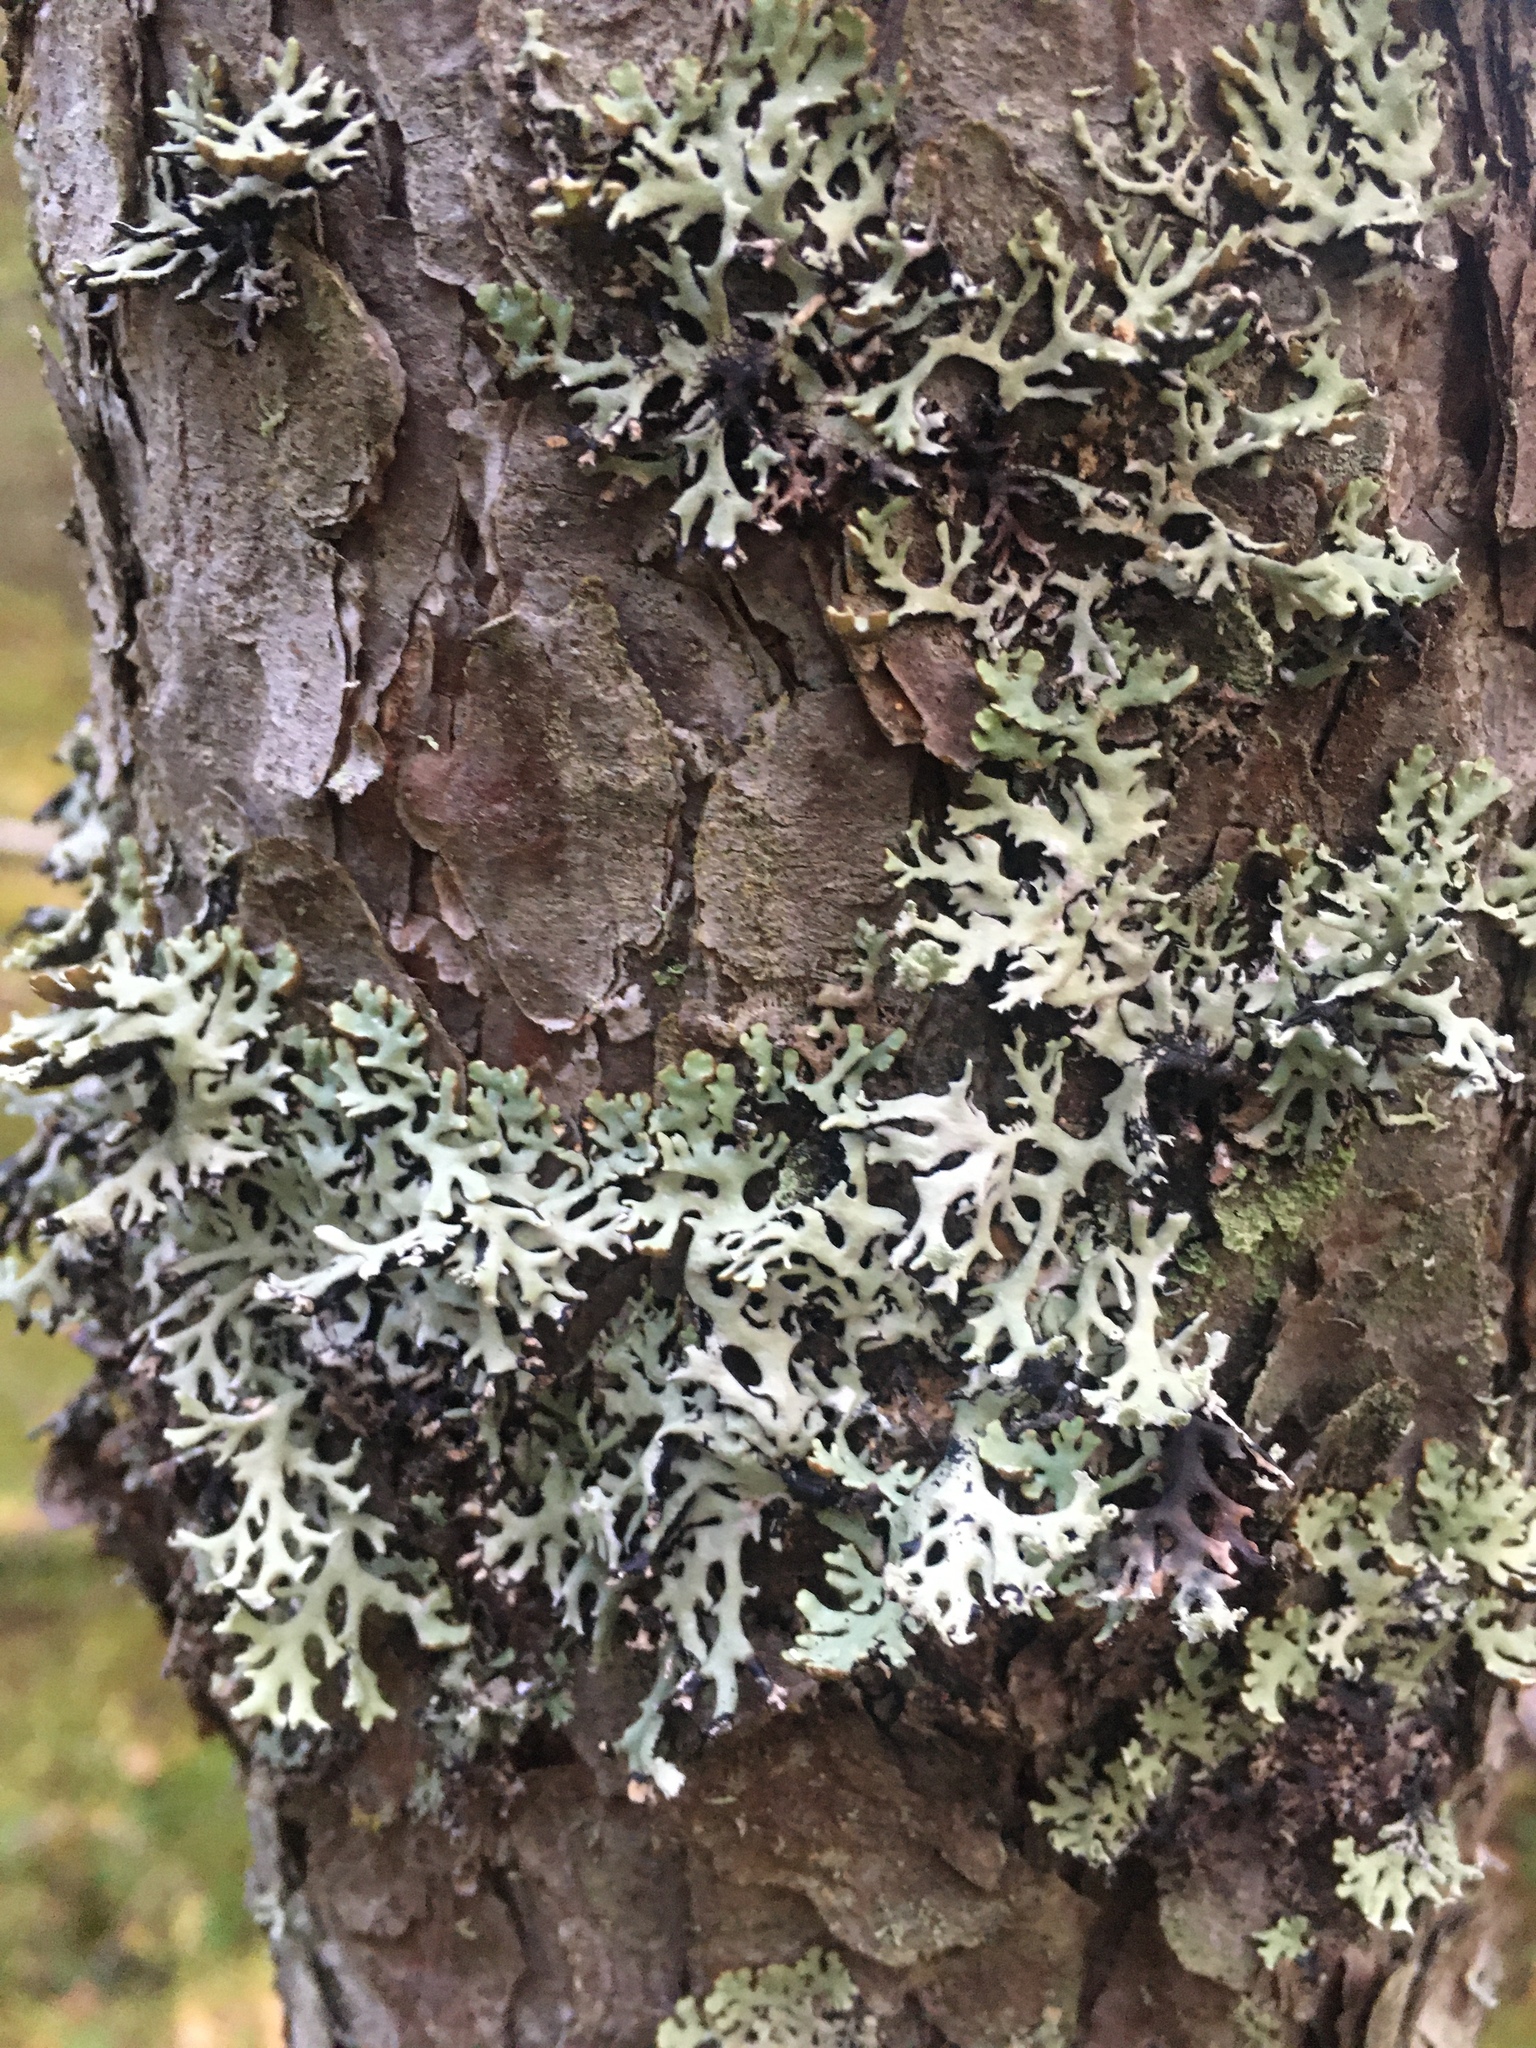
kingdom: Fungi
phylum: Ascomycota
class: Lecanoromycetes
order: Lecanorales
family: Parmeliaceae
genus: Hypogymnia
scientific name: Hypogymnia physodes
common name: Dark crottle
